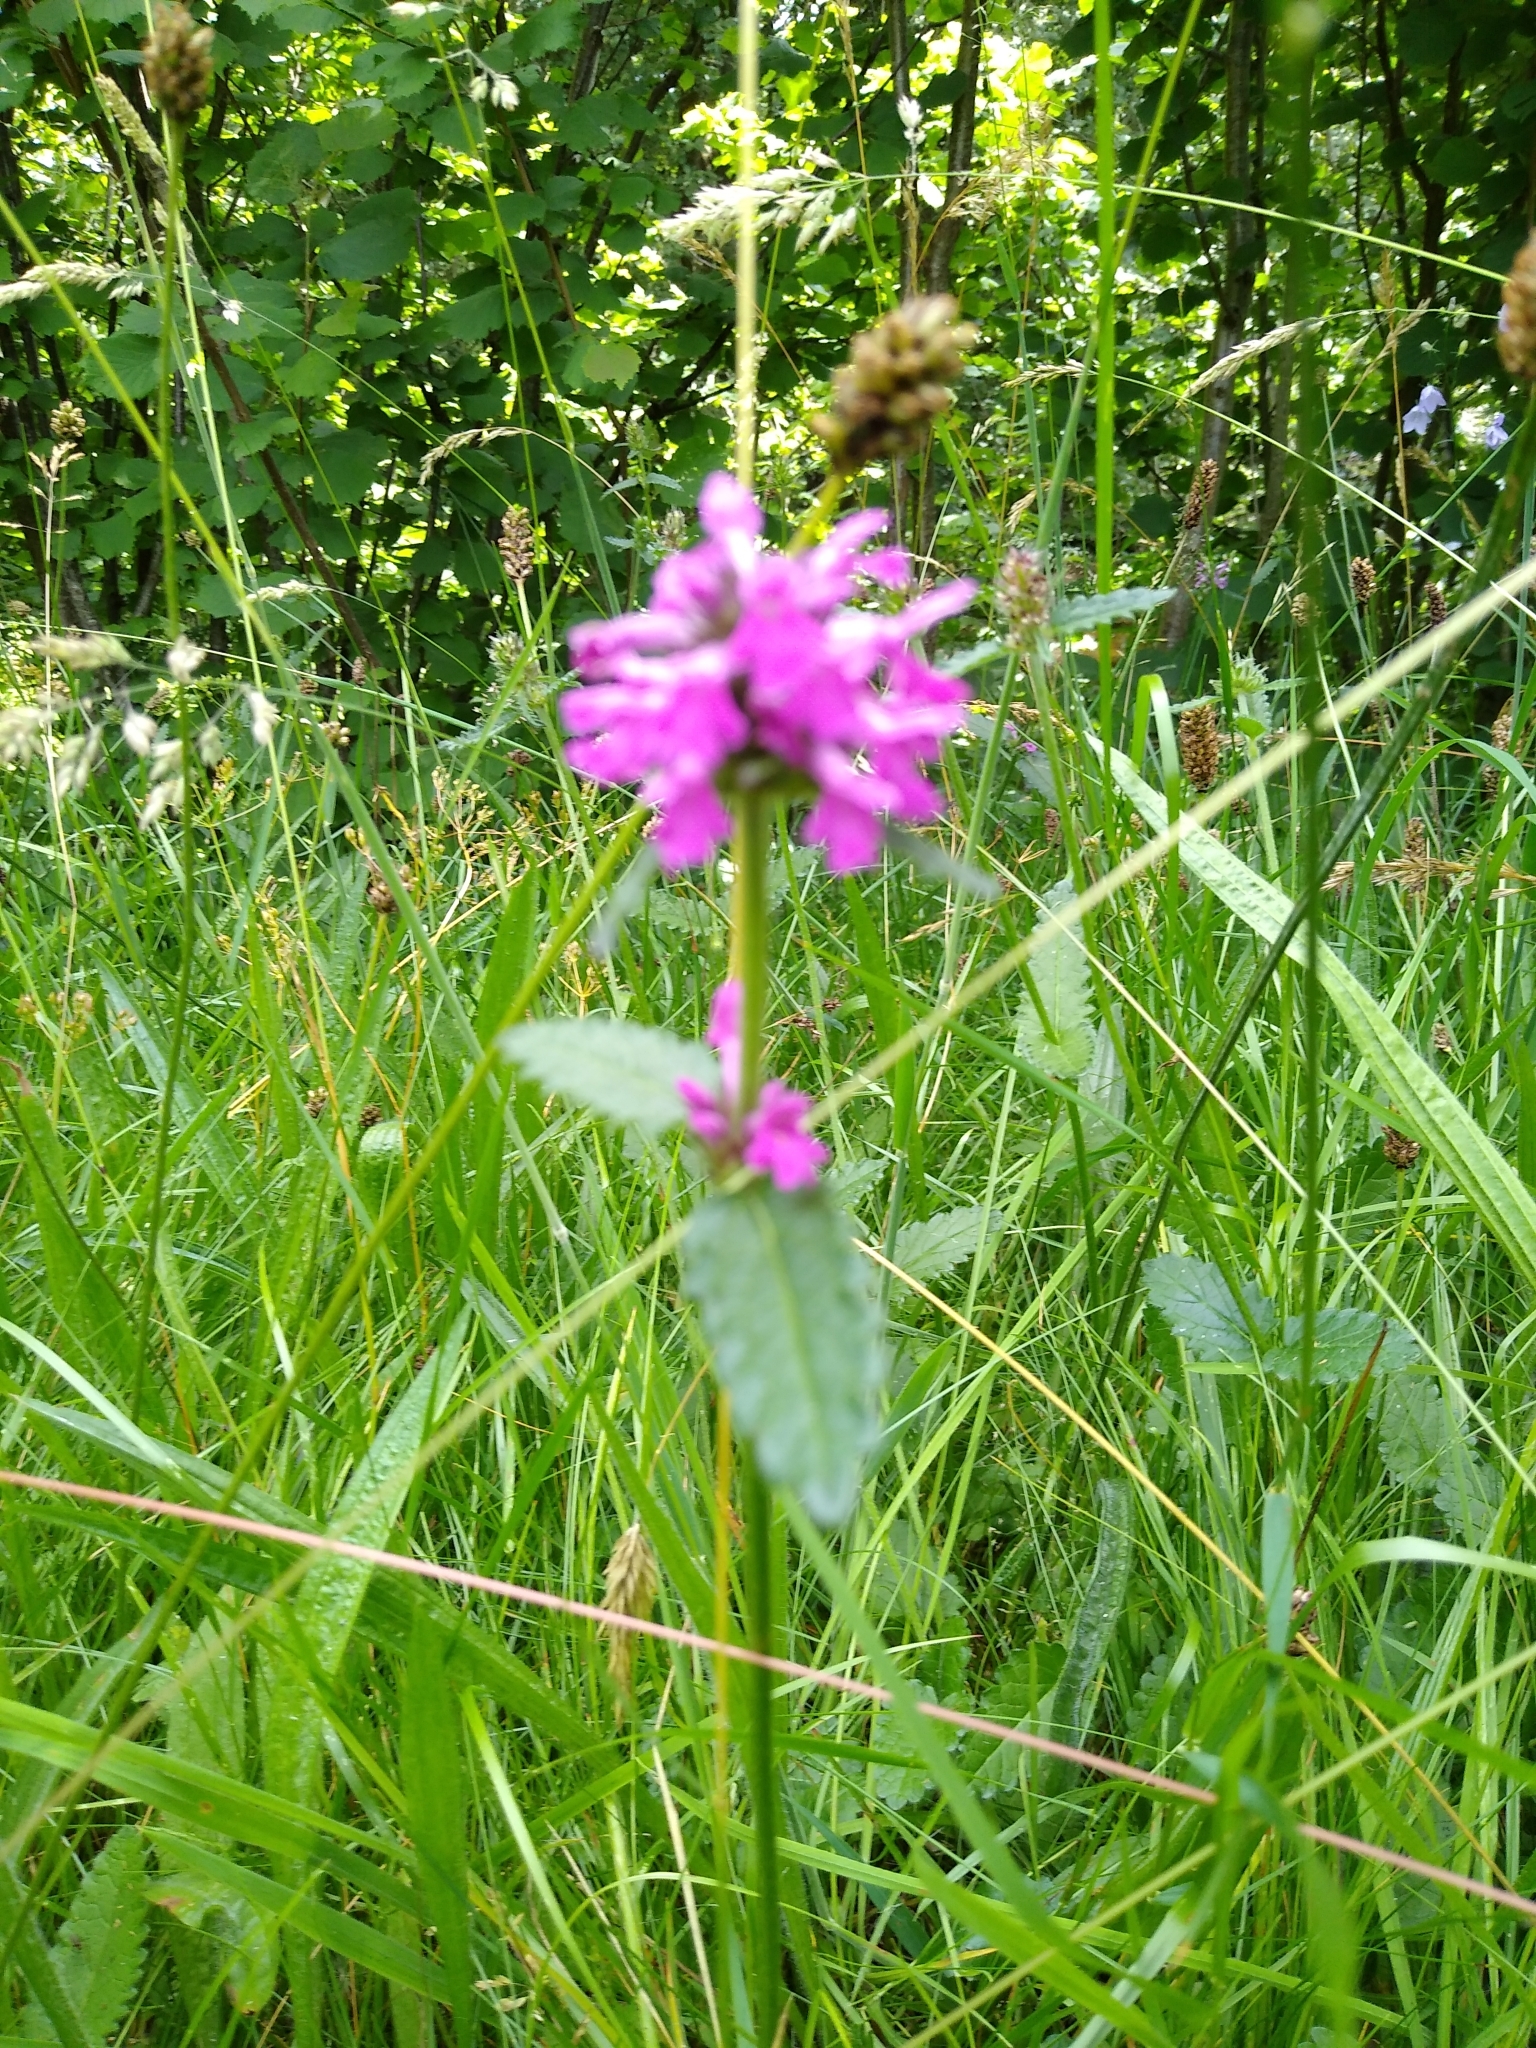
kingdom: Plantae
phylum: Tracheophyta
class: Magnoliopsida
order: Lamiales
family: Lamiaceae
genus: Betonica
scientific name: Betonica officinalis
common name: Bishop's-wort
